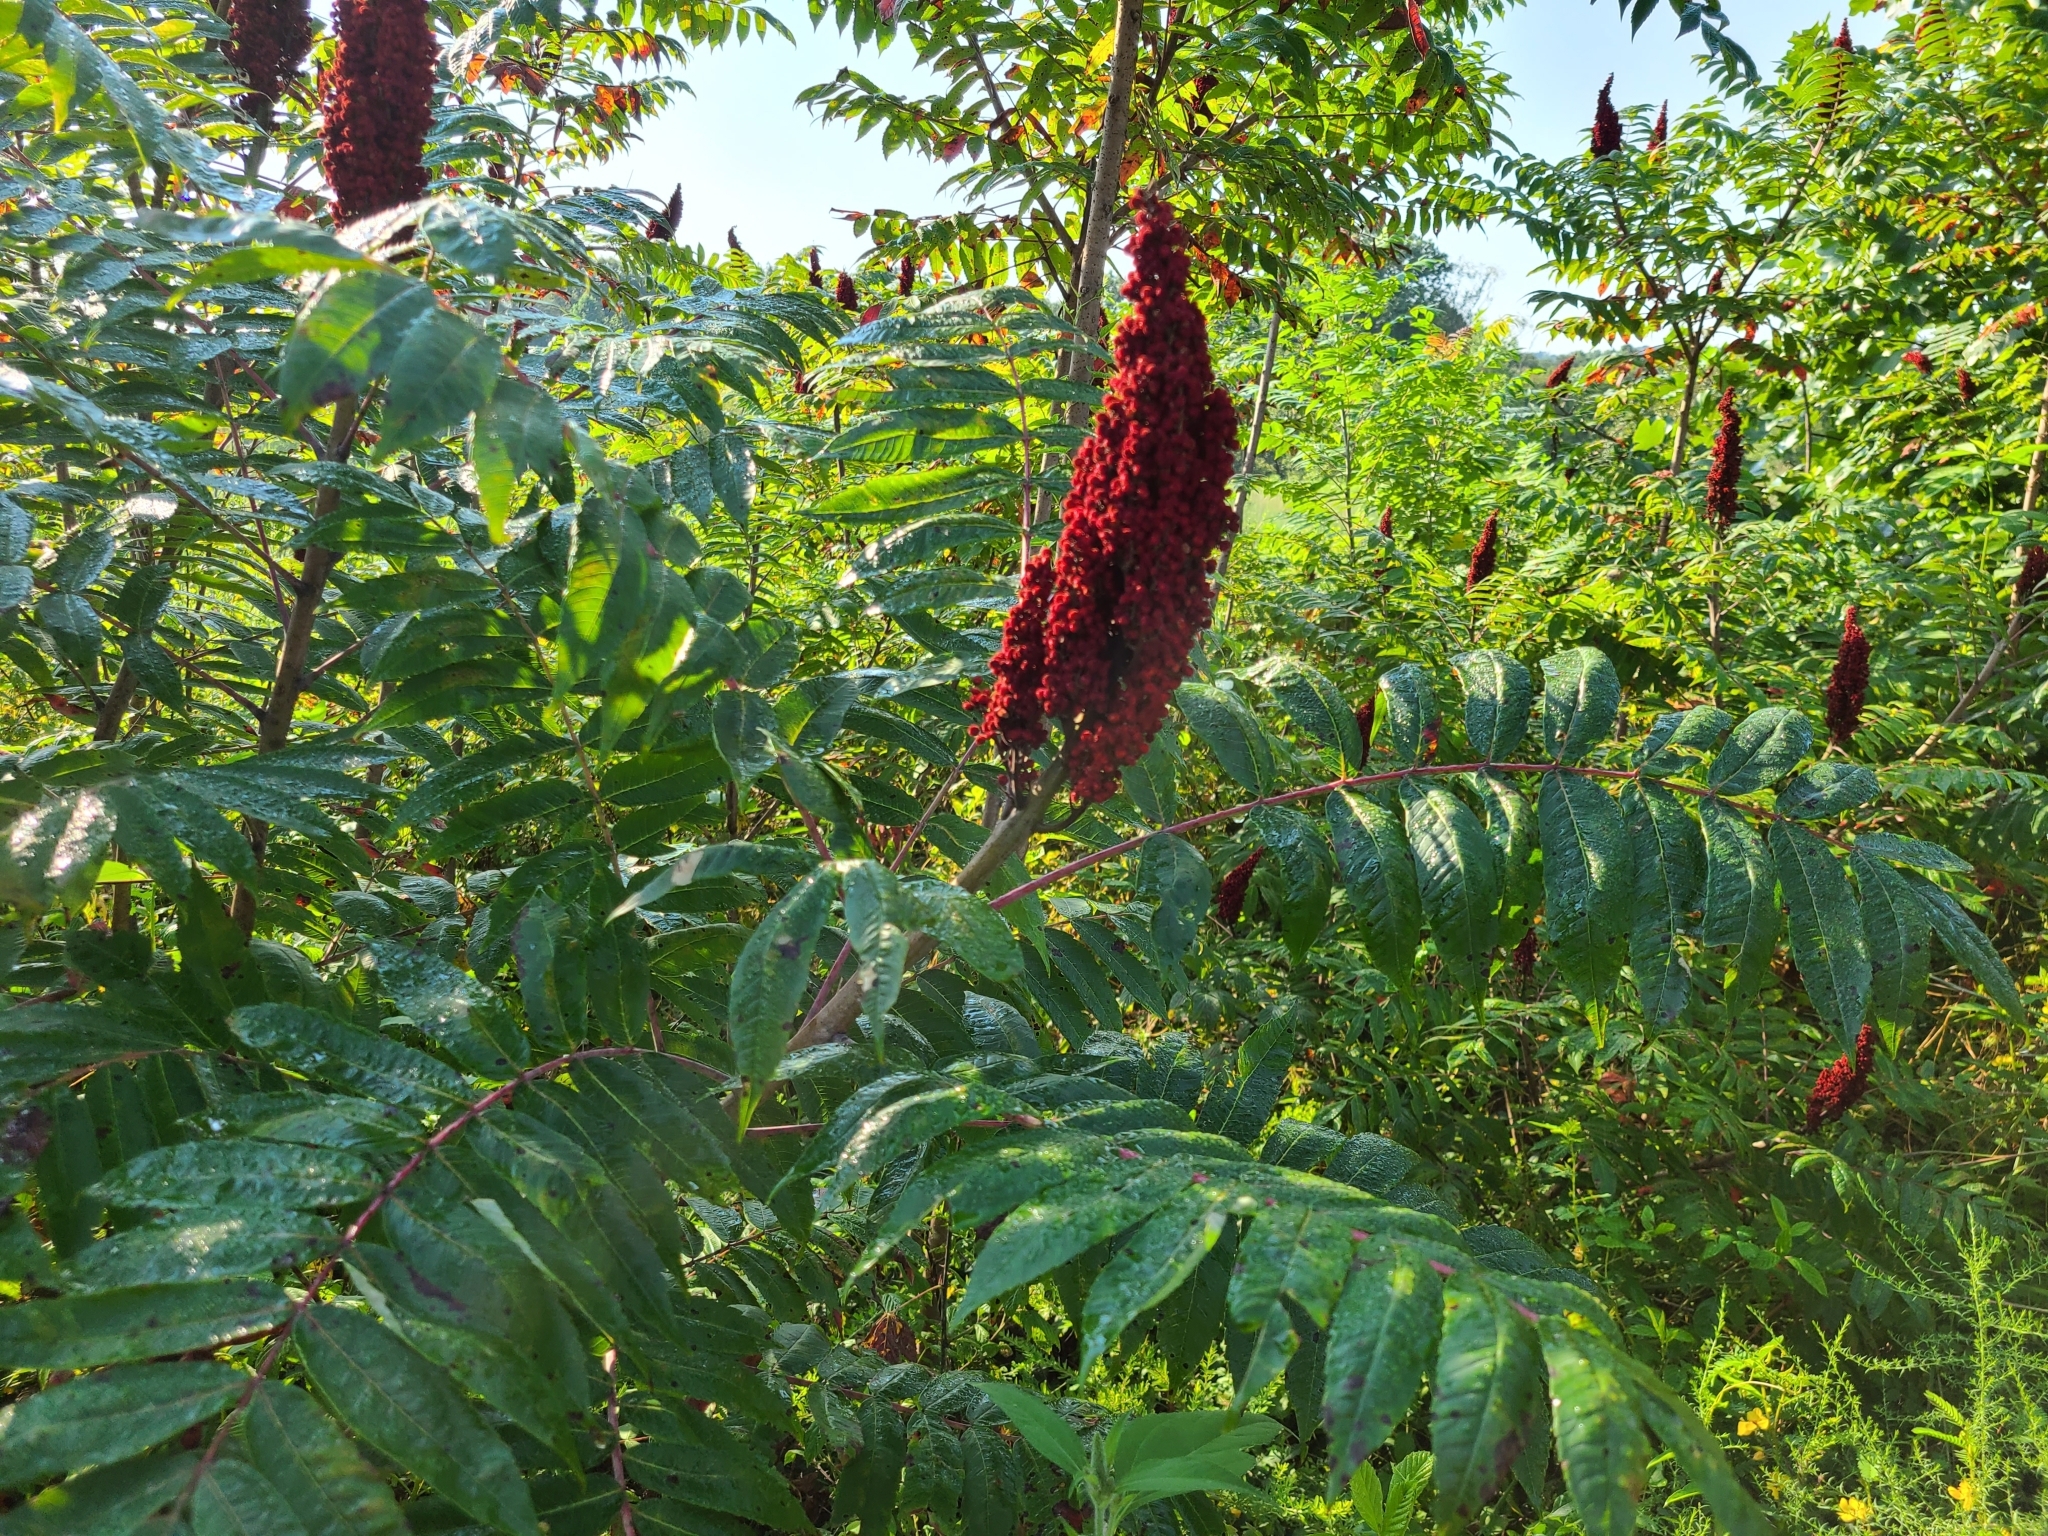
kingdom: Plantae
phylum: Tracheophyta
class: Magnoliopsida
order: Sapindales
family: Anacardiaceae
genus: Rhus
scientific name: Rhus glabra
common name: Scarlet sumac
